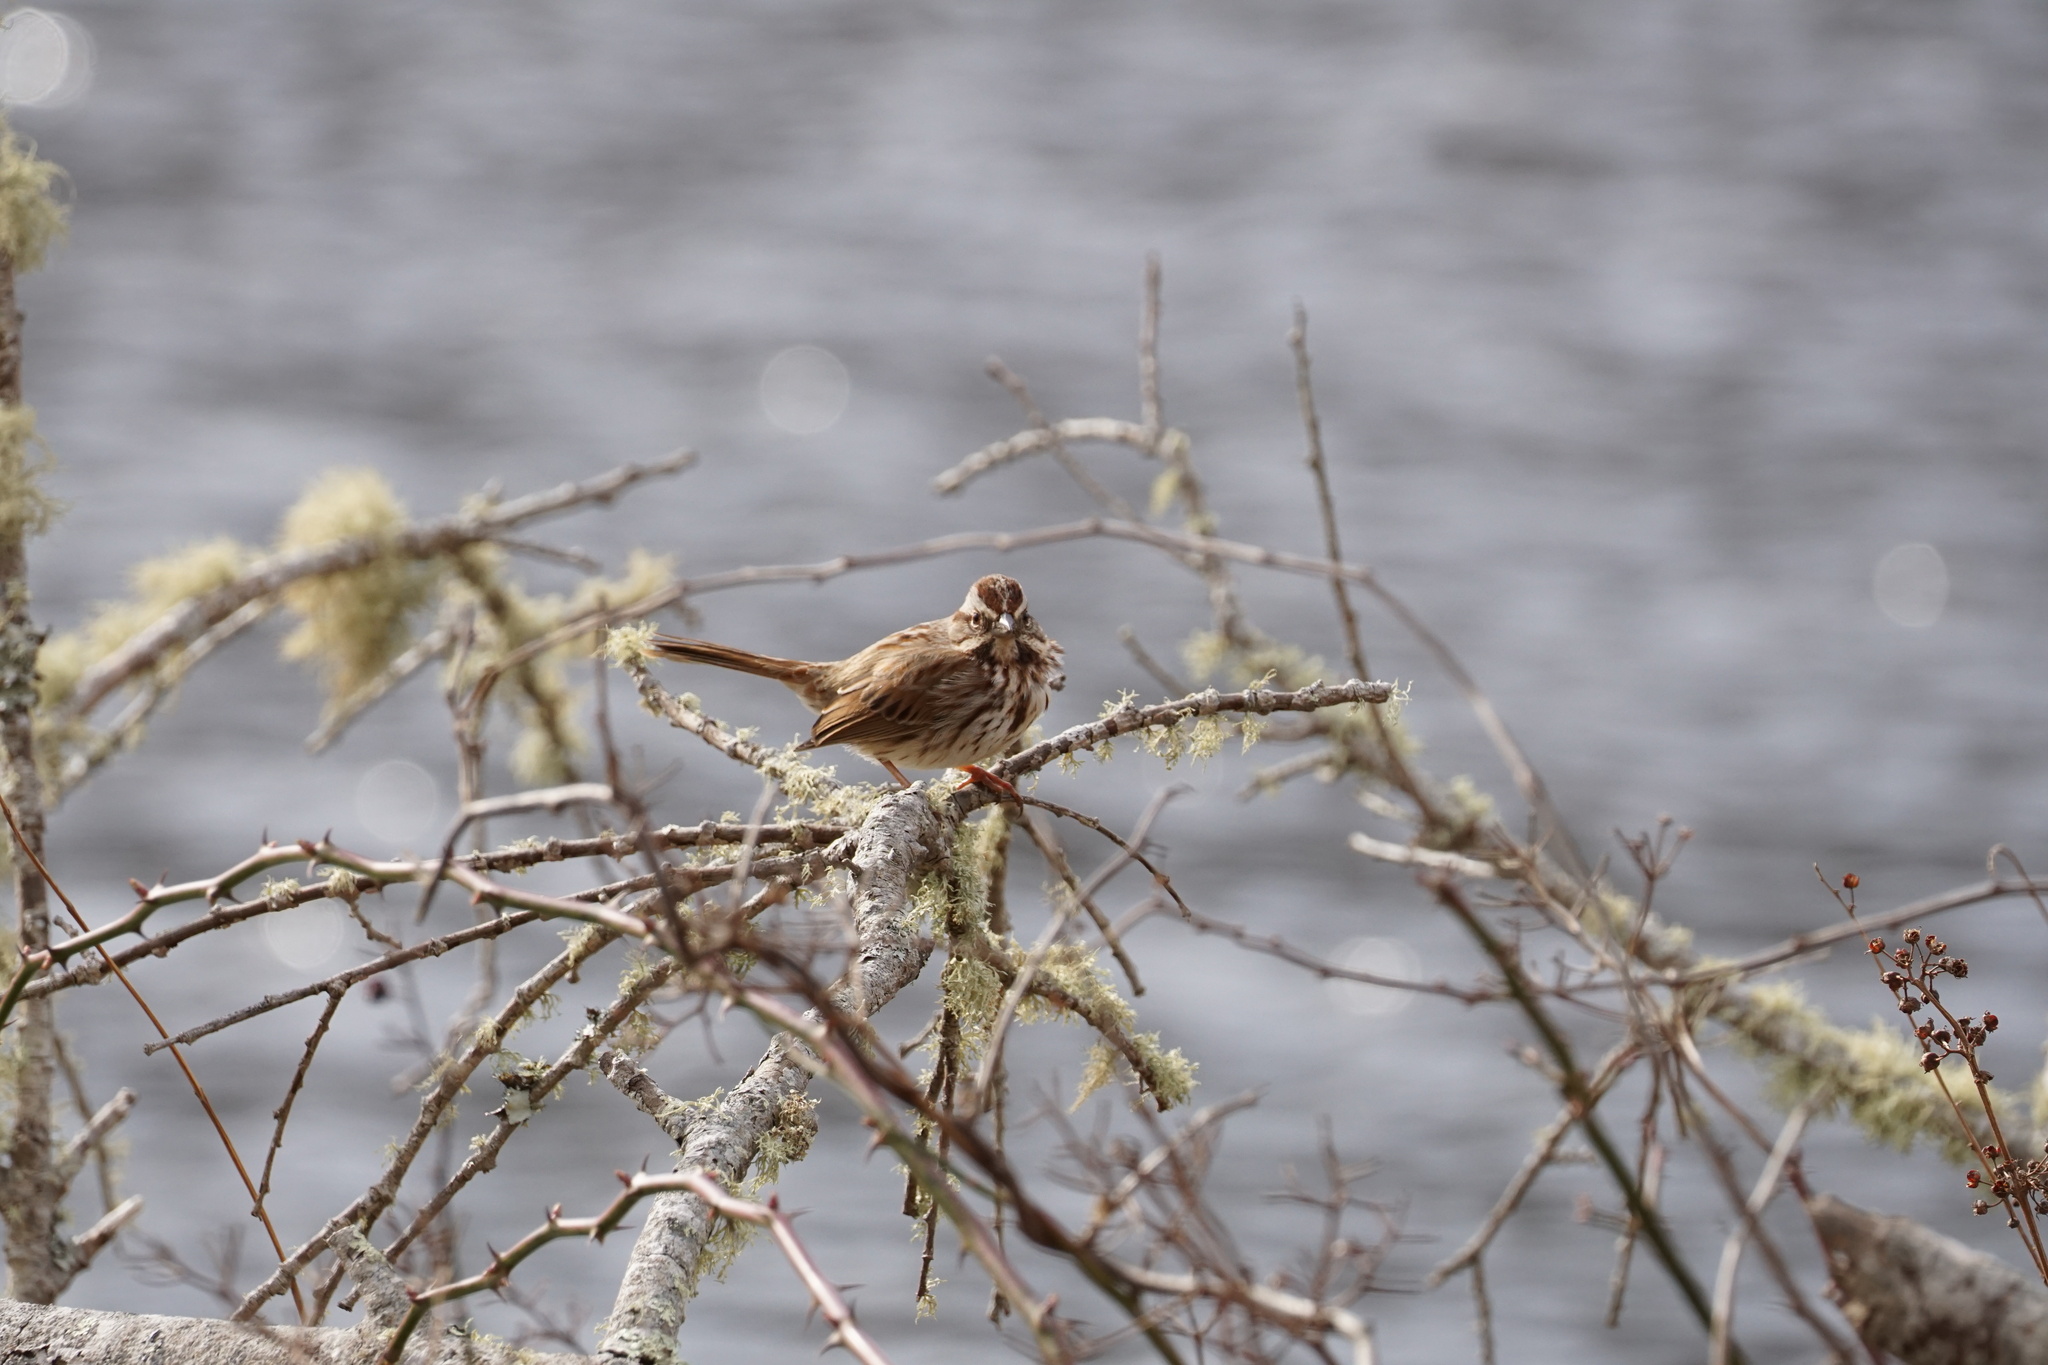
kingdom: Animalia
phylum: Chordata
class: Aves
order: Passeriformes
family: Passerellidae
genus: Melospiza
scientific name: Melospiza melodia
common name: Song sparrow
